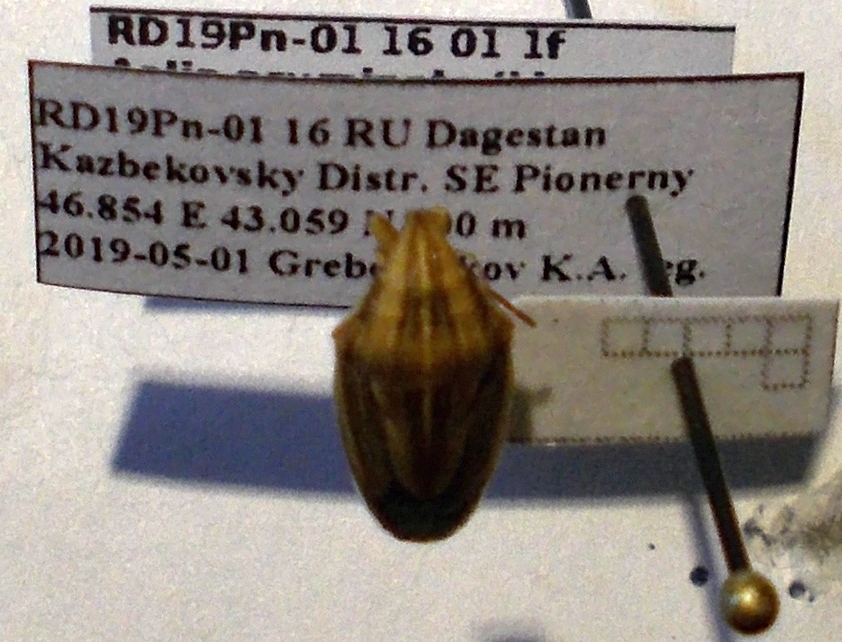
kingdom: Animalia
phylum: Arthropoda
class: Insecta
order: Hemiptera
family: Pentatomidae
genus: Aelia
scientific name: Aelia acuminata
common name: Bishop's mitre
